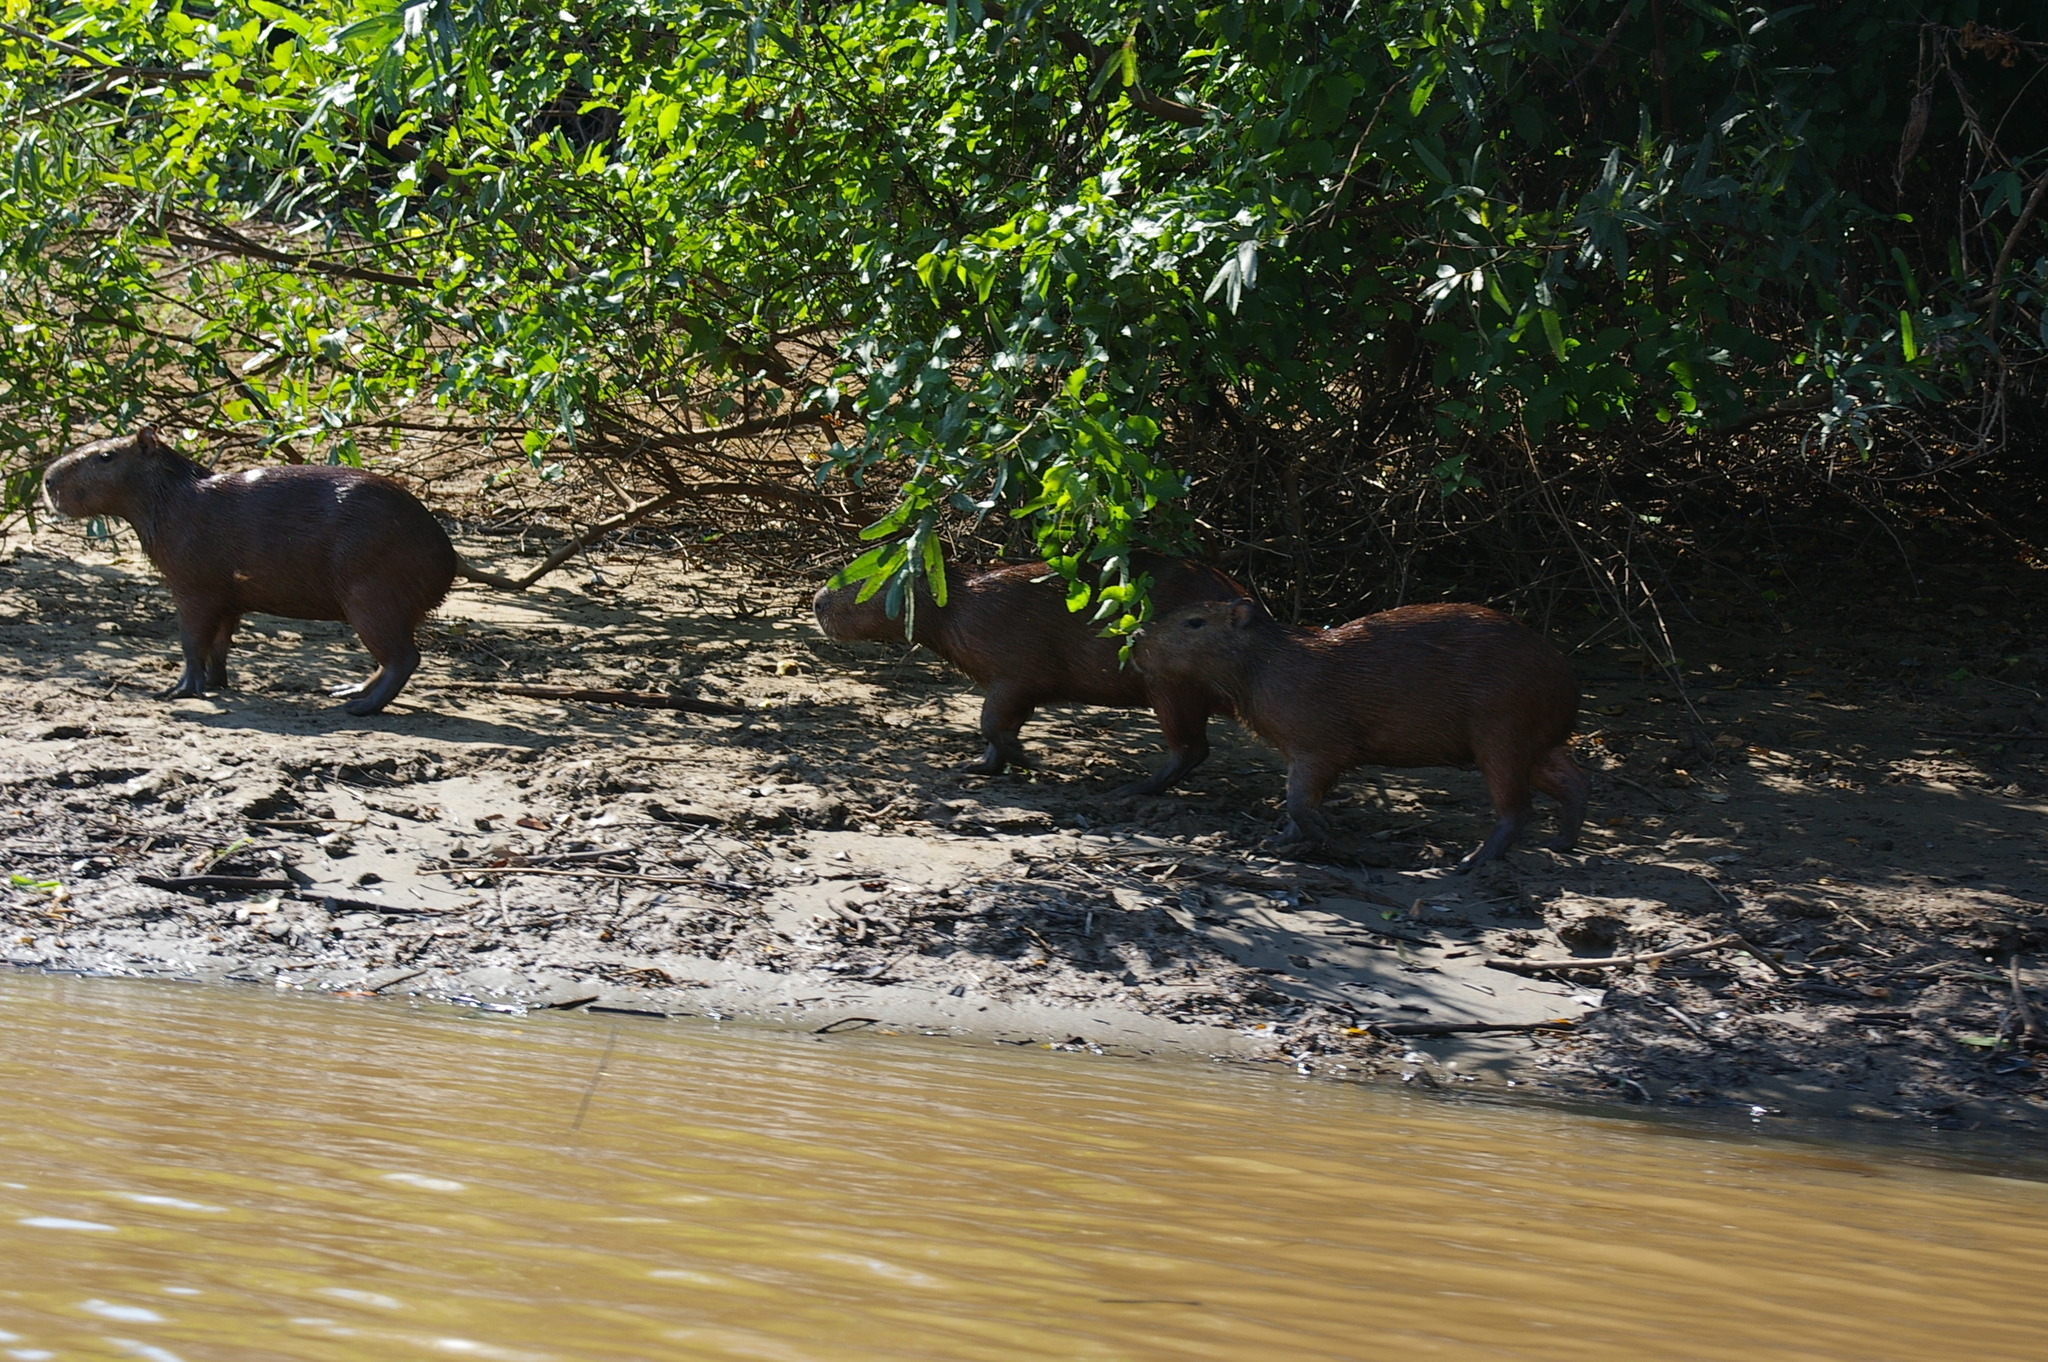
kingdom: Animalia
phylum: Chordata
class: Mammalia
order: Rodentia
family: Caviidae
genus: Hydrochoerus
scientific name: Hydrochoerus hydrochaeris
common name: Capybara
